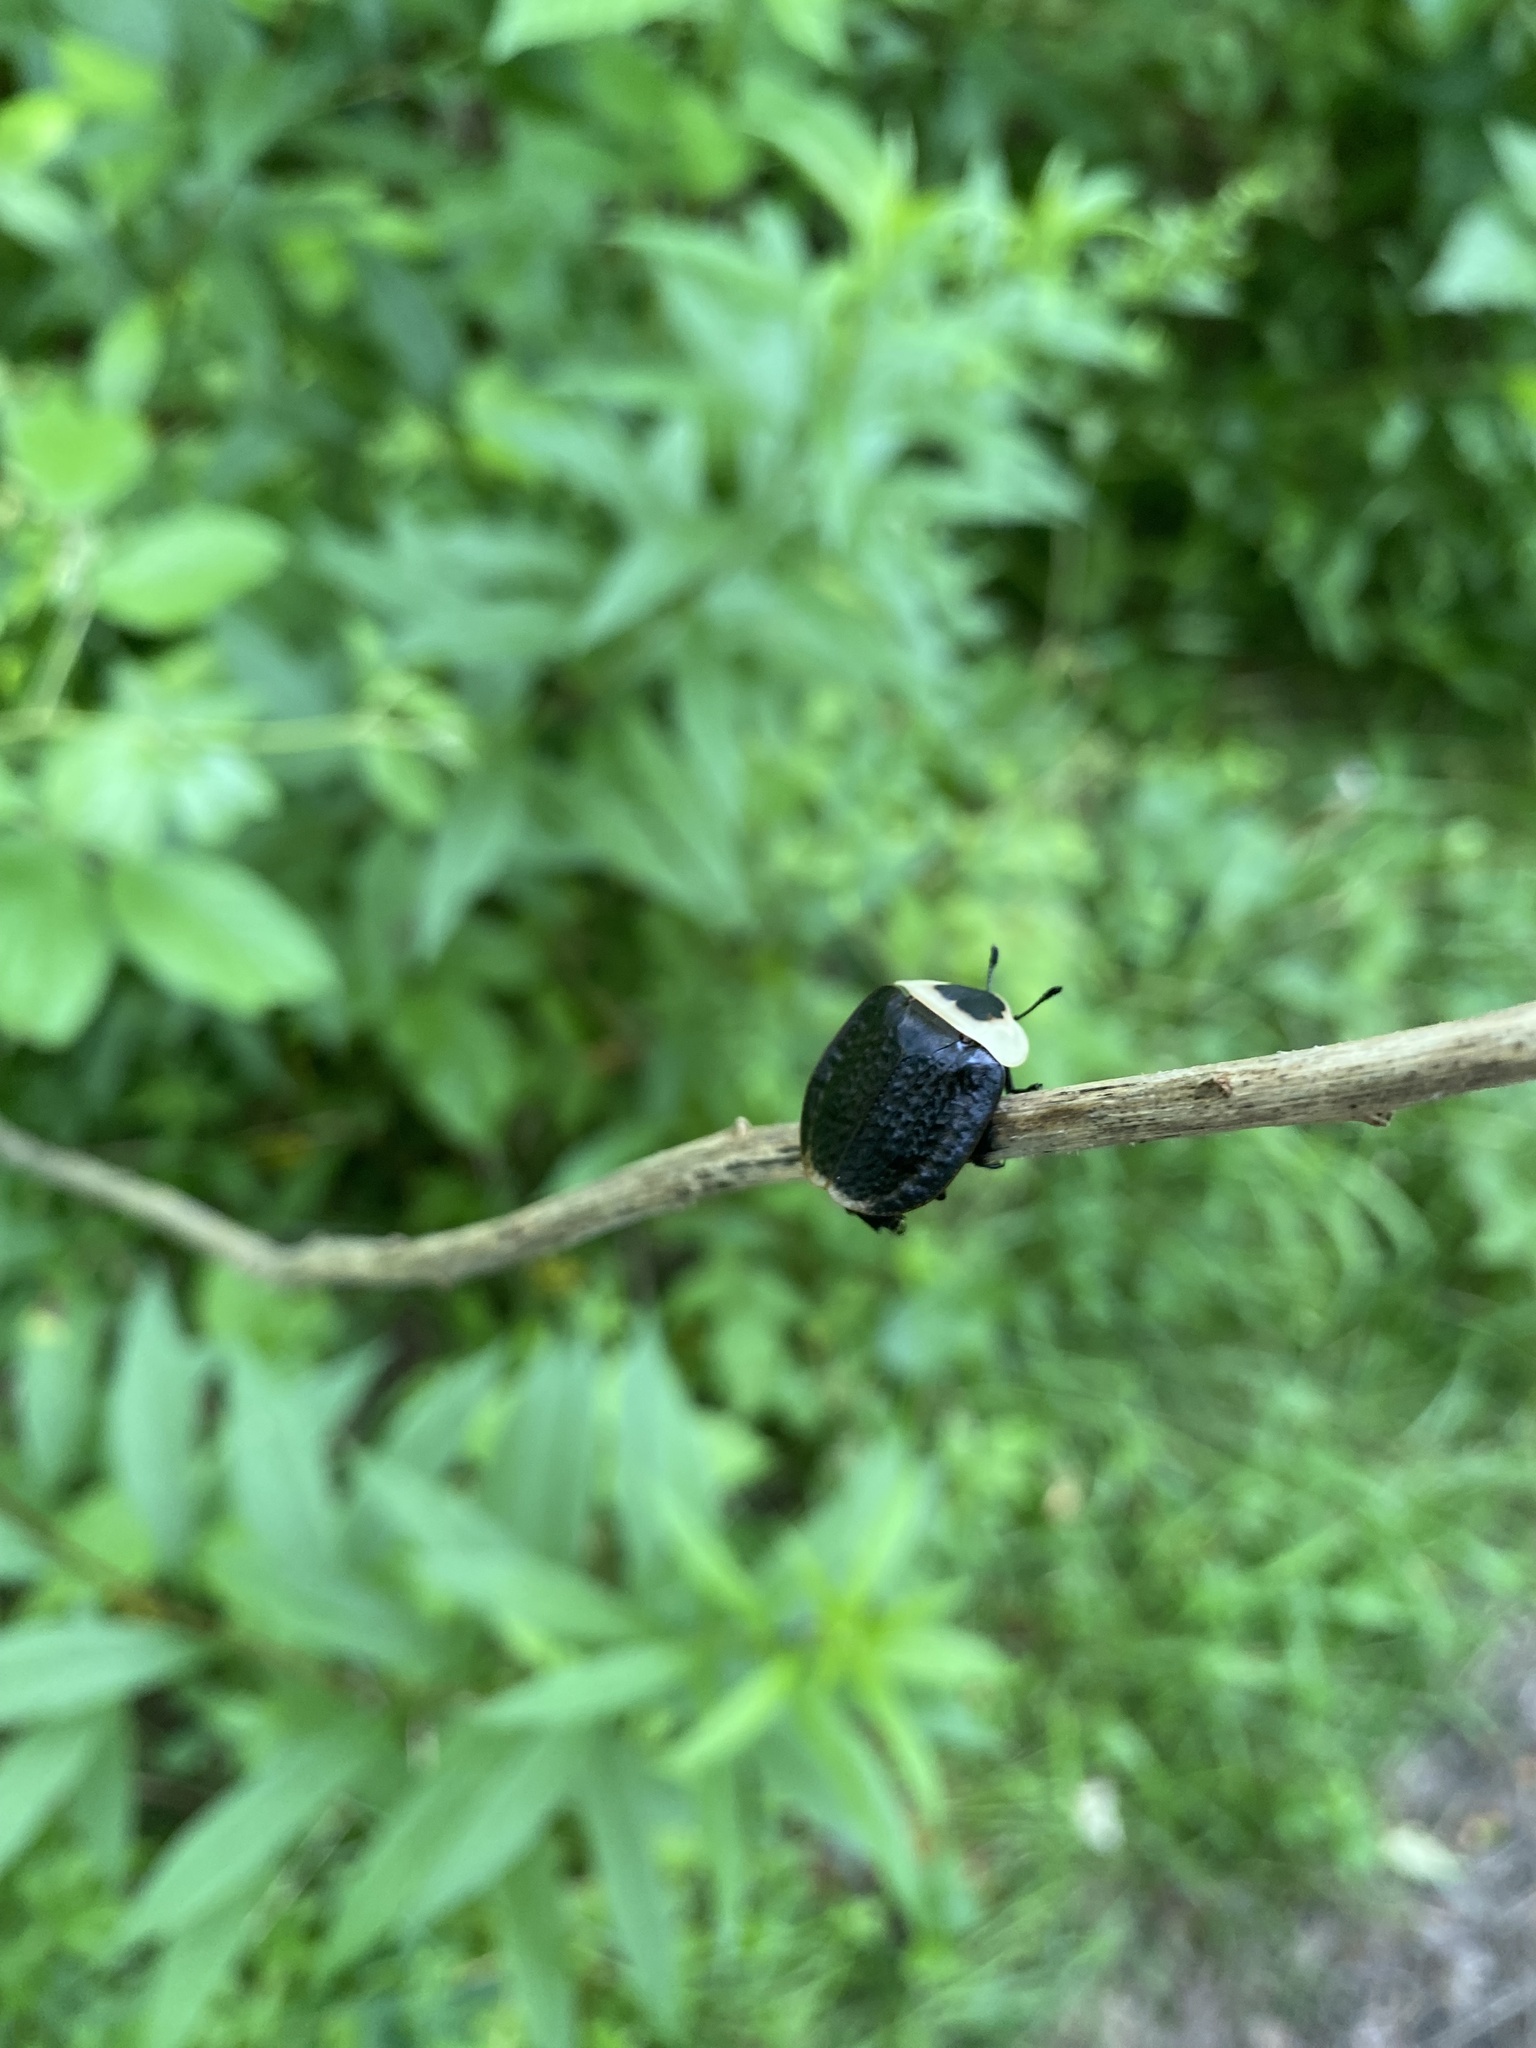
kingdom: Animalia
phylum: Arthropoda
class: Insecta
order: Coleoptera
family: Staphylinidae
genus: Necrophila
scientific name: Necrophila americana
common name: American carrion beetle
